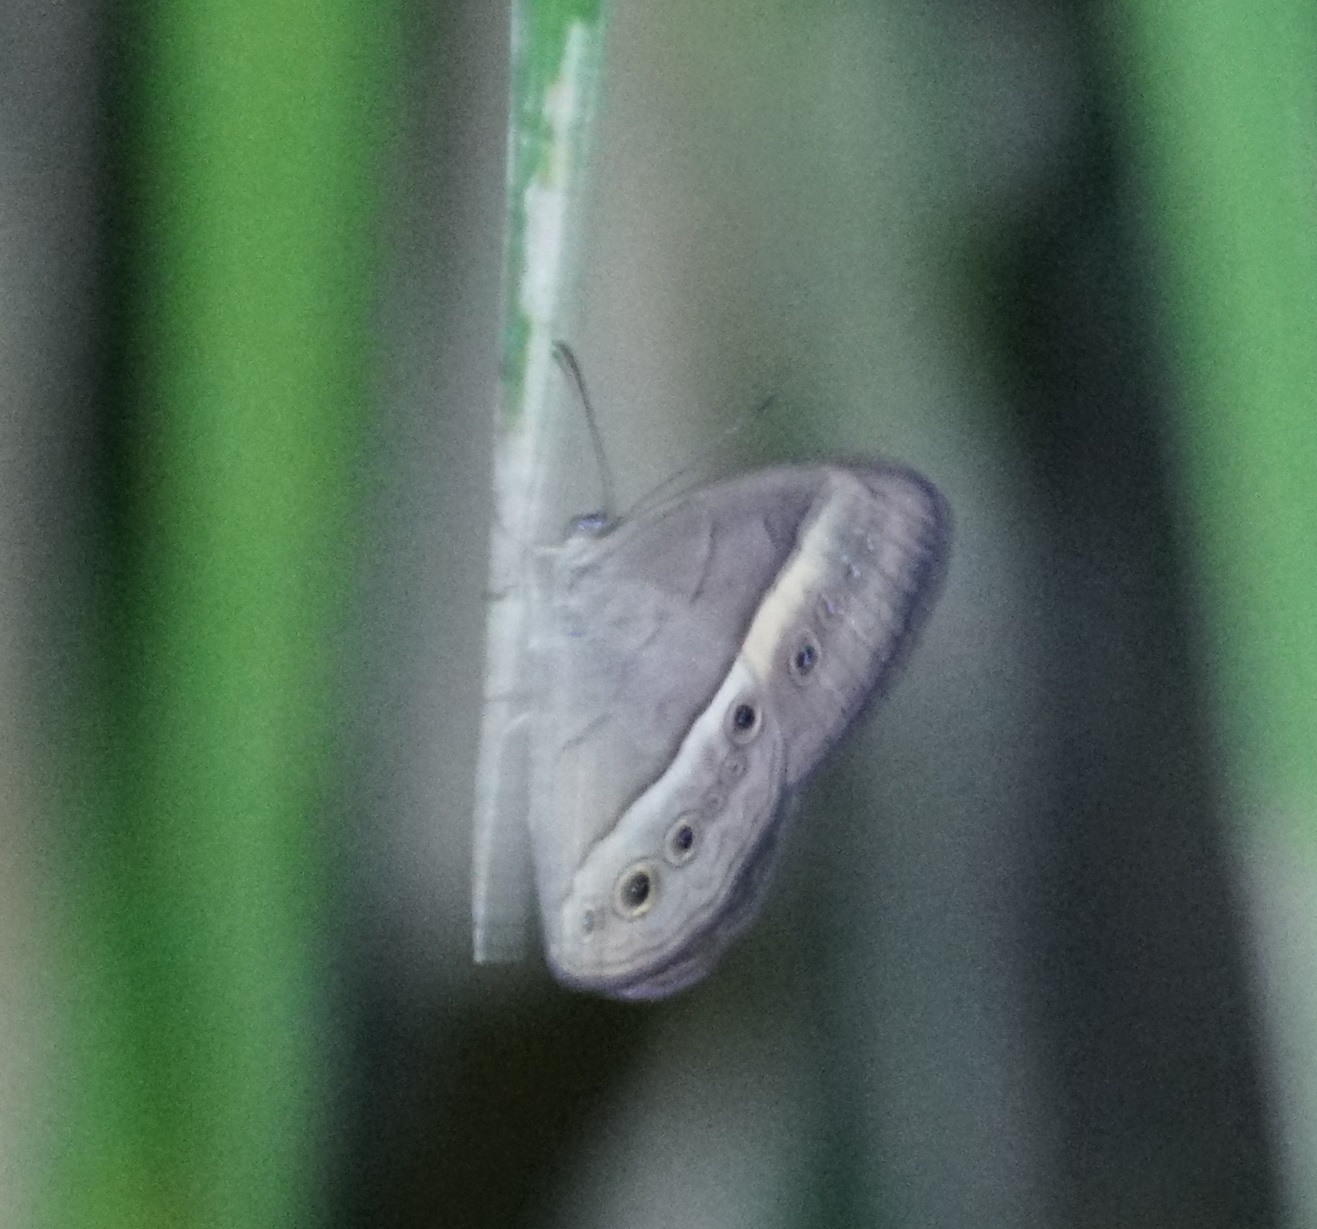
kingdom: Animalia
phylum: Arthropoda
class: Insecta
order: Lepidoptera
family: Nymphalidae
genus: Mycalesis
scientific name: Mycalesis terminus
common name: Orange bushbrown
